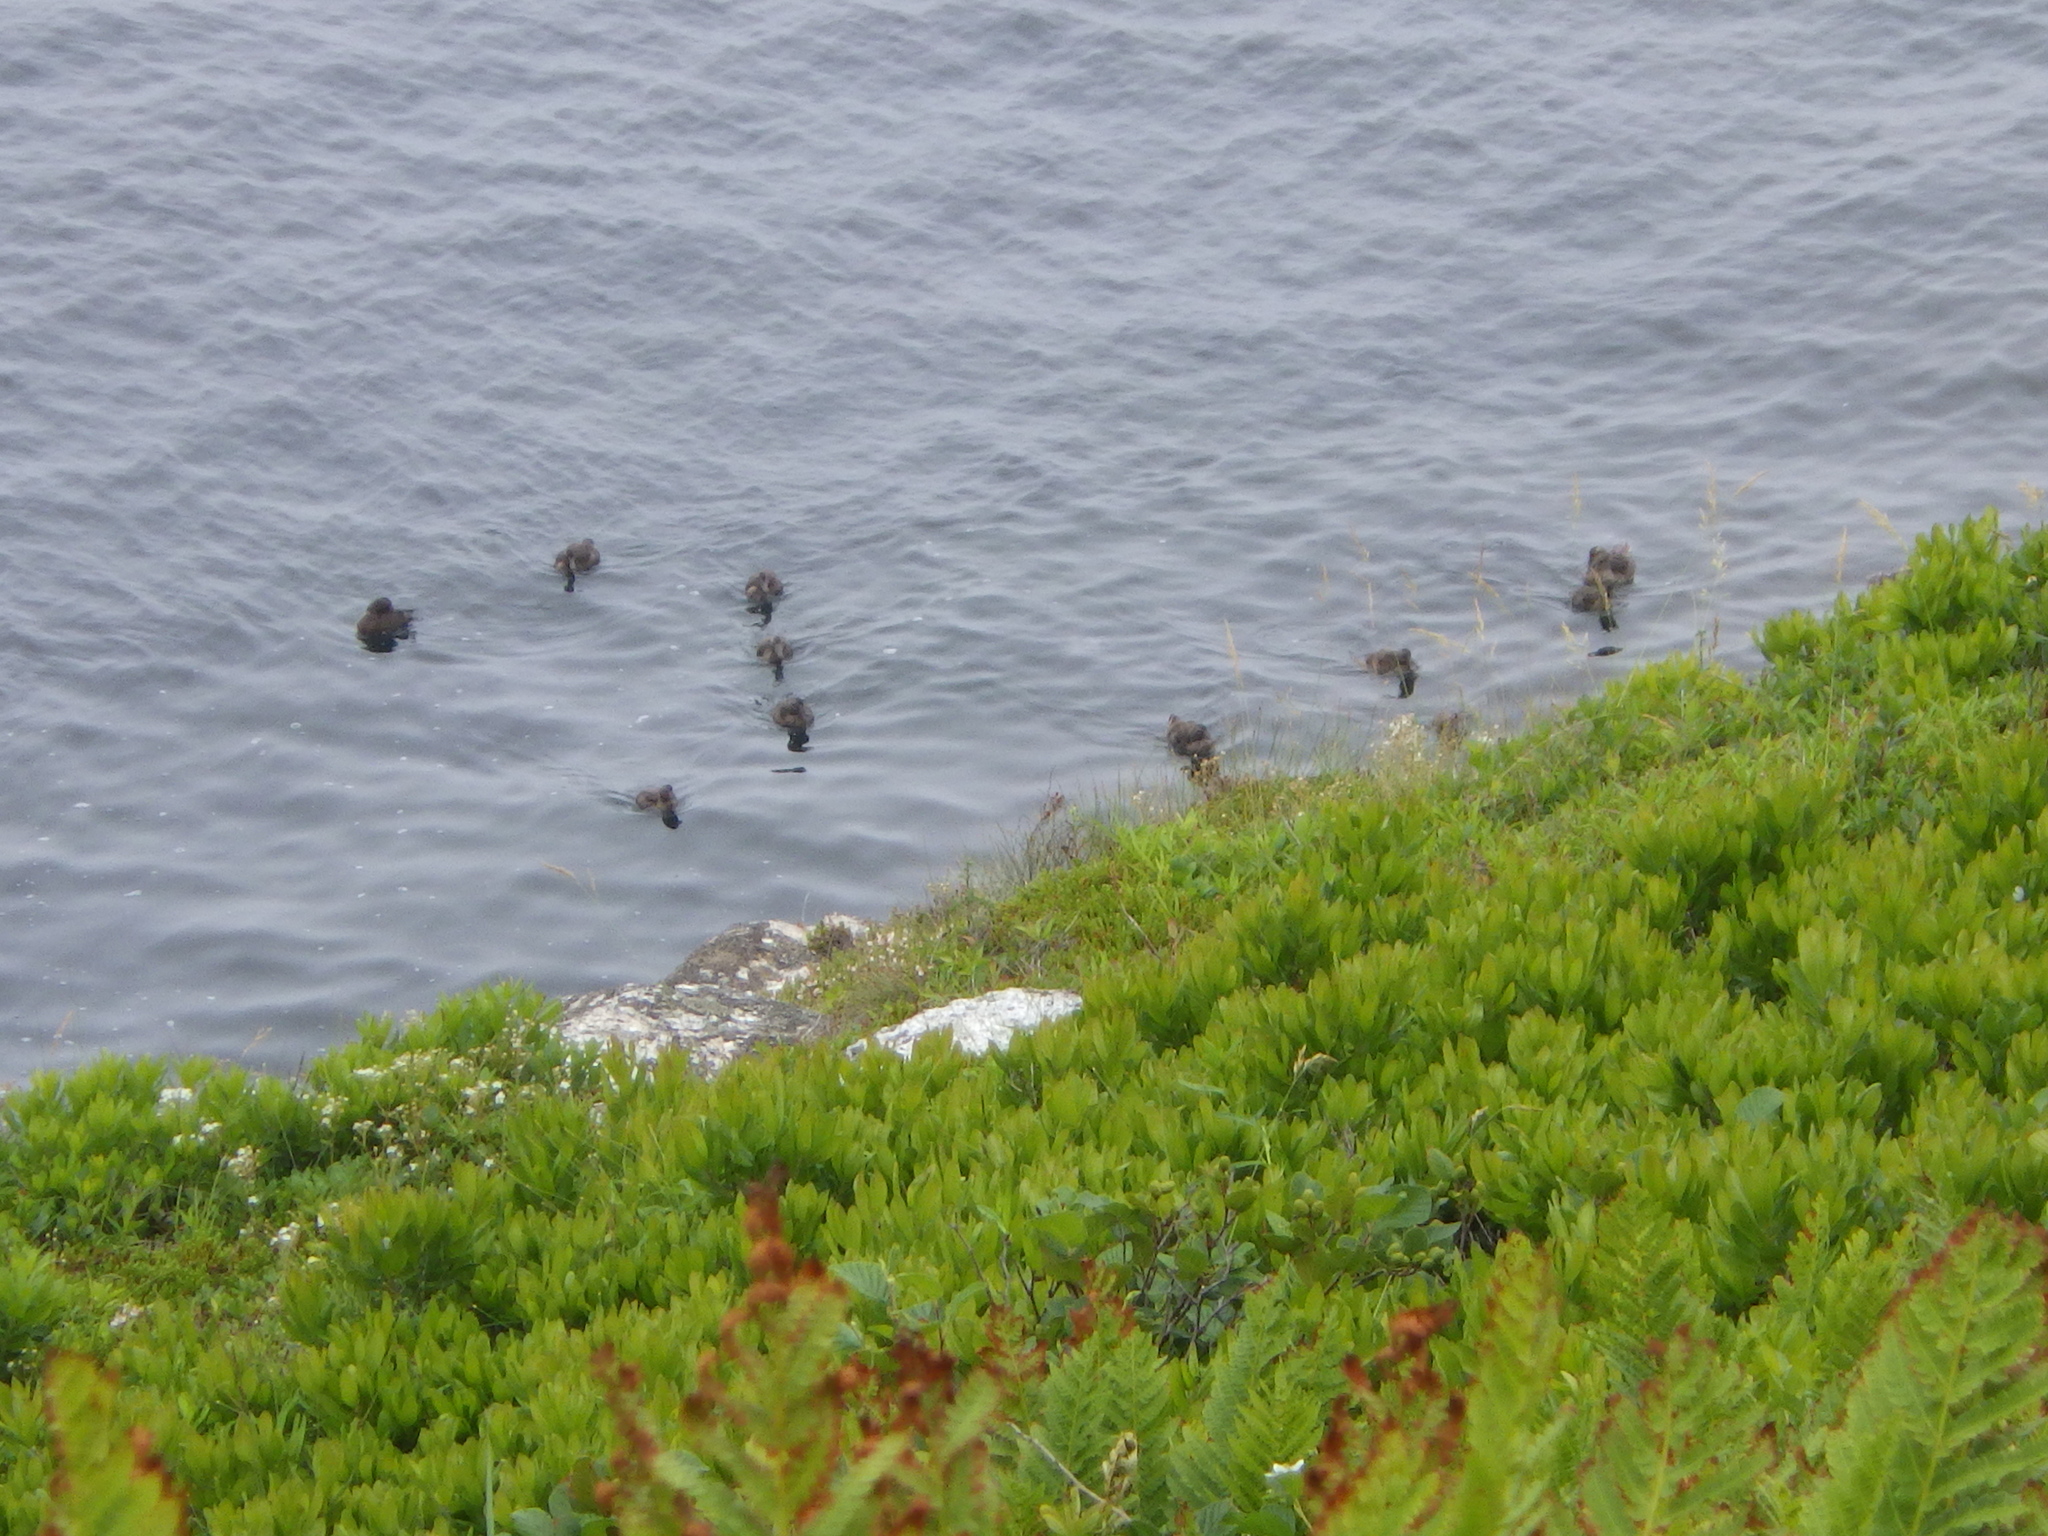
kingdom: Animalia
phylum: Chordata
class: Aves
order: Anseriformes
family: Anatidae
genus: Somateria
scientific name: Somateria mollissima
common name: Common eider
